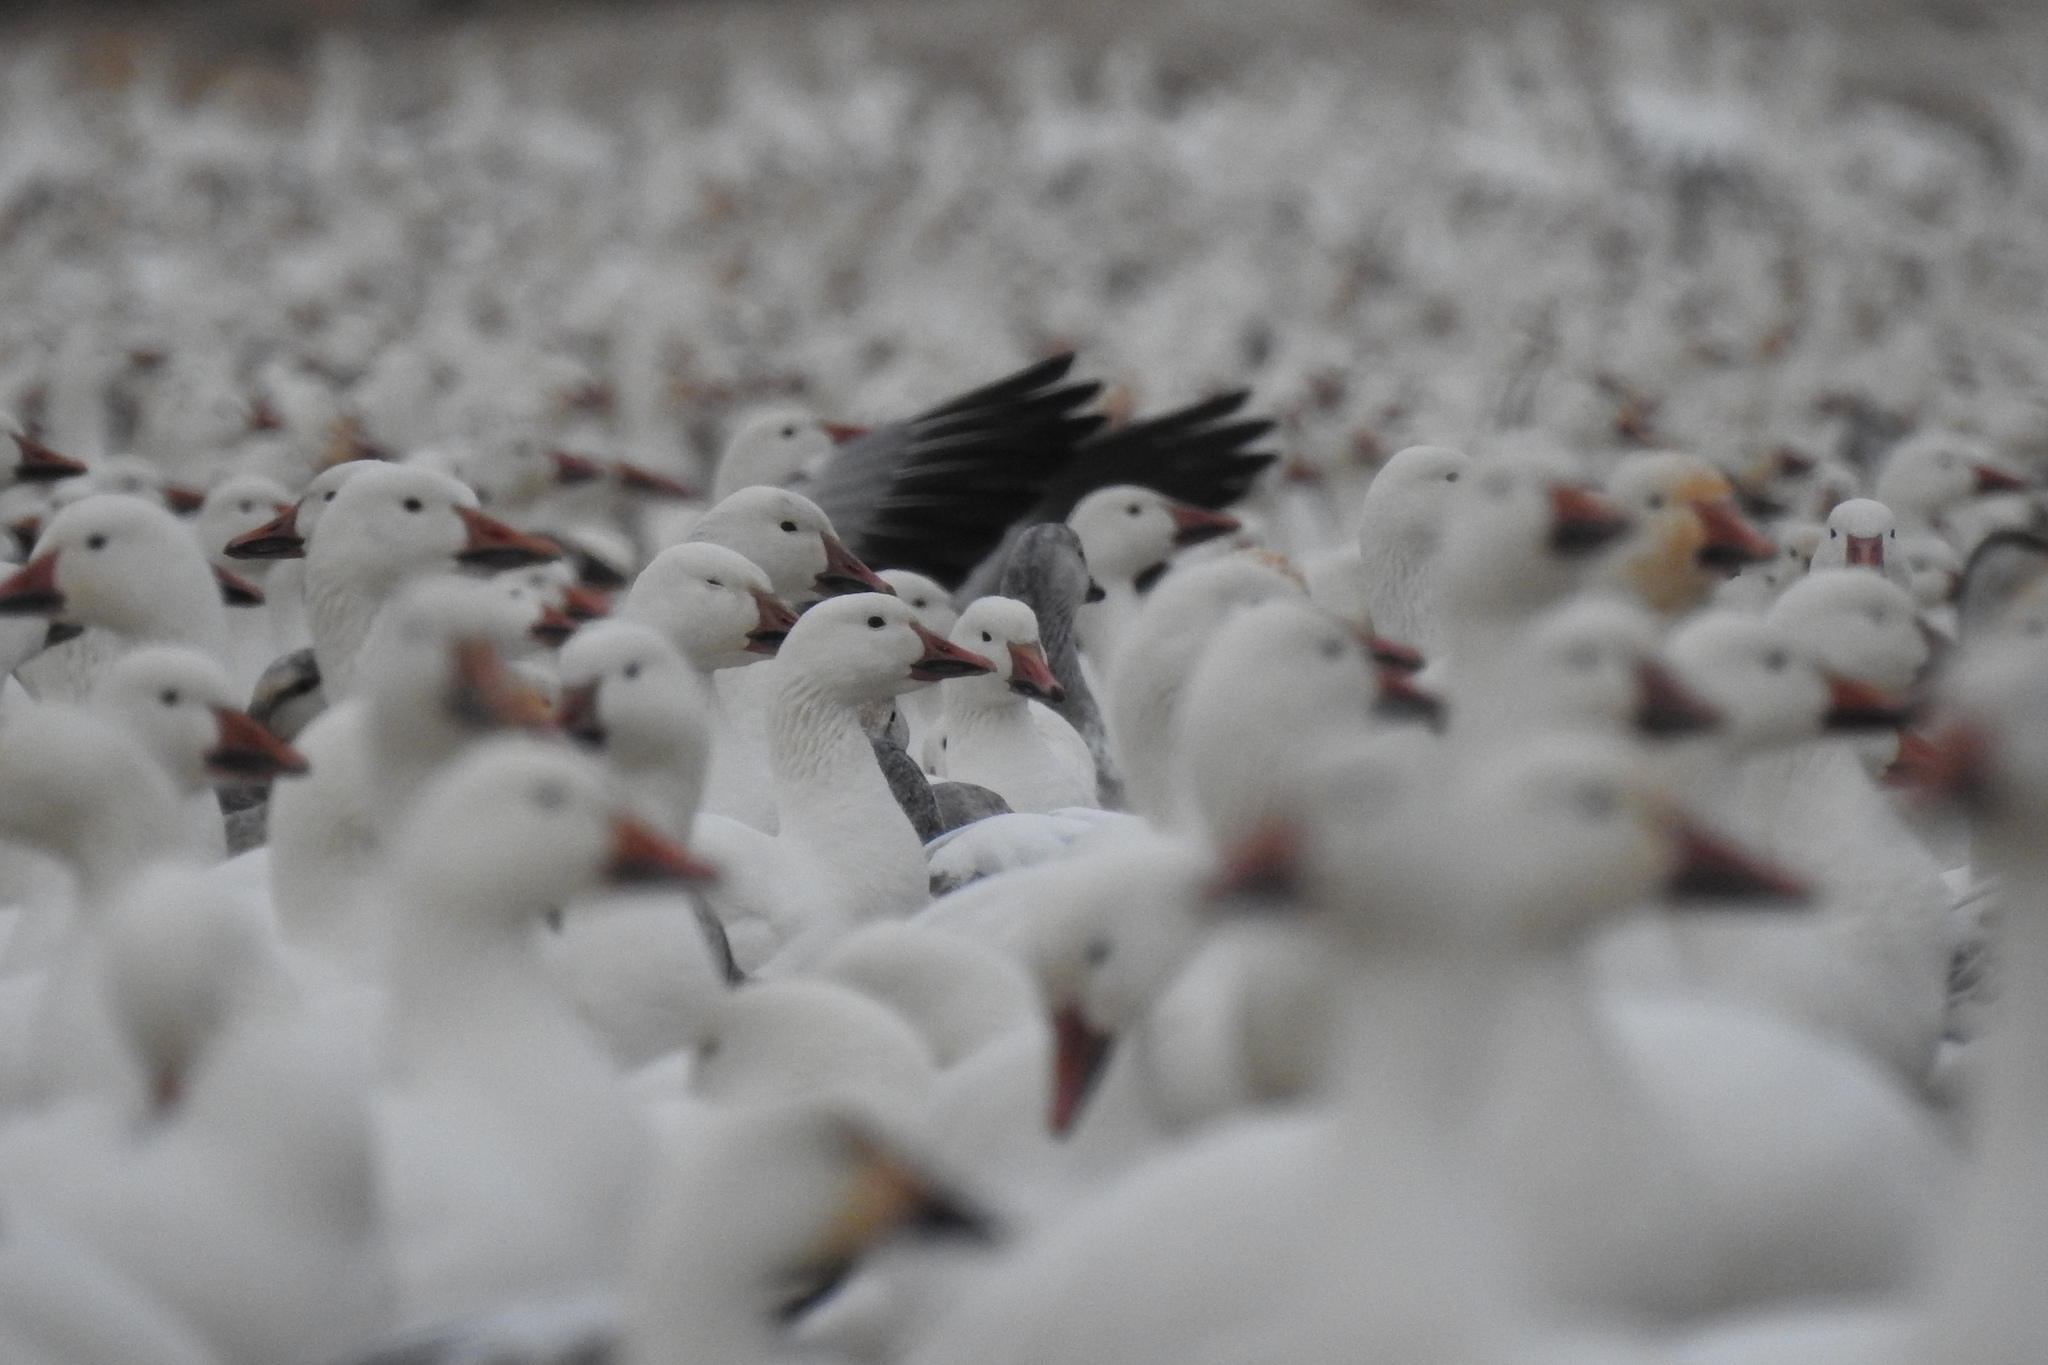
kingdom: Animalia
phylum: Chordata
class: Aves
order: Anseriformes
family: Anatidae
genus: Anser
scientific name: Anser caerulescens
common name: Snow goose
